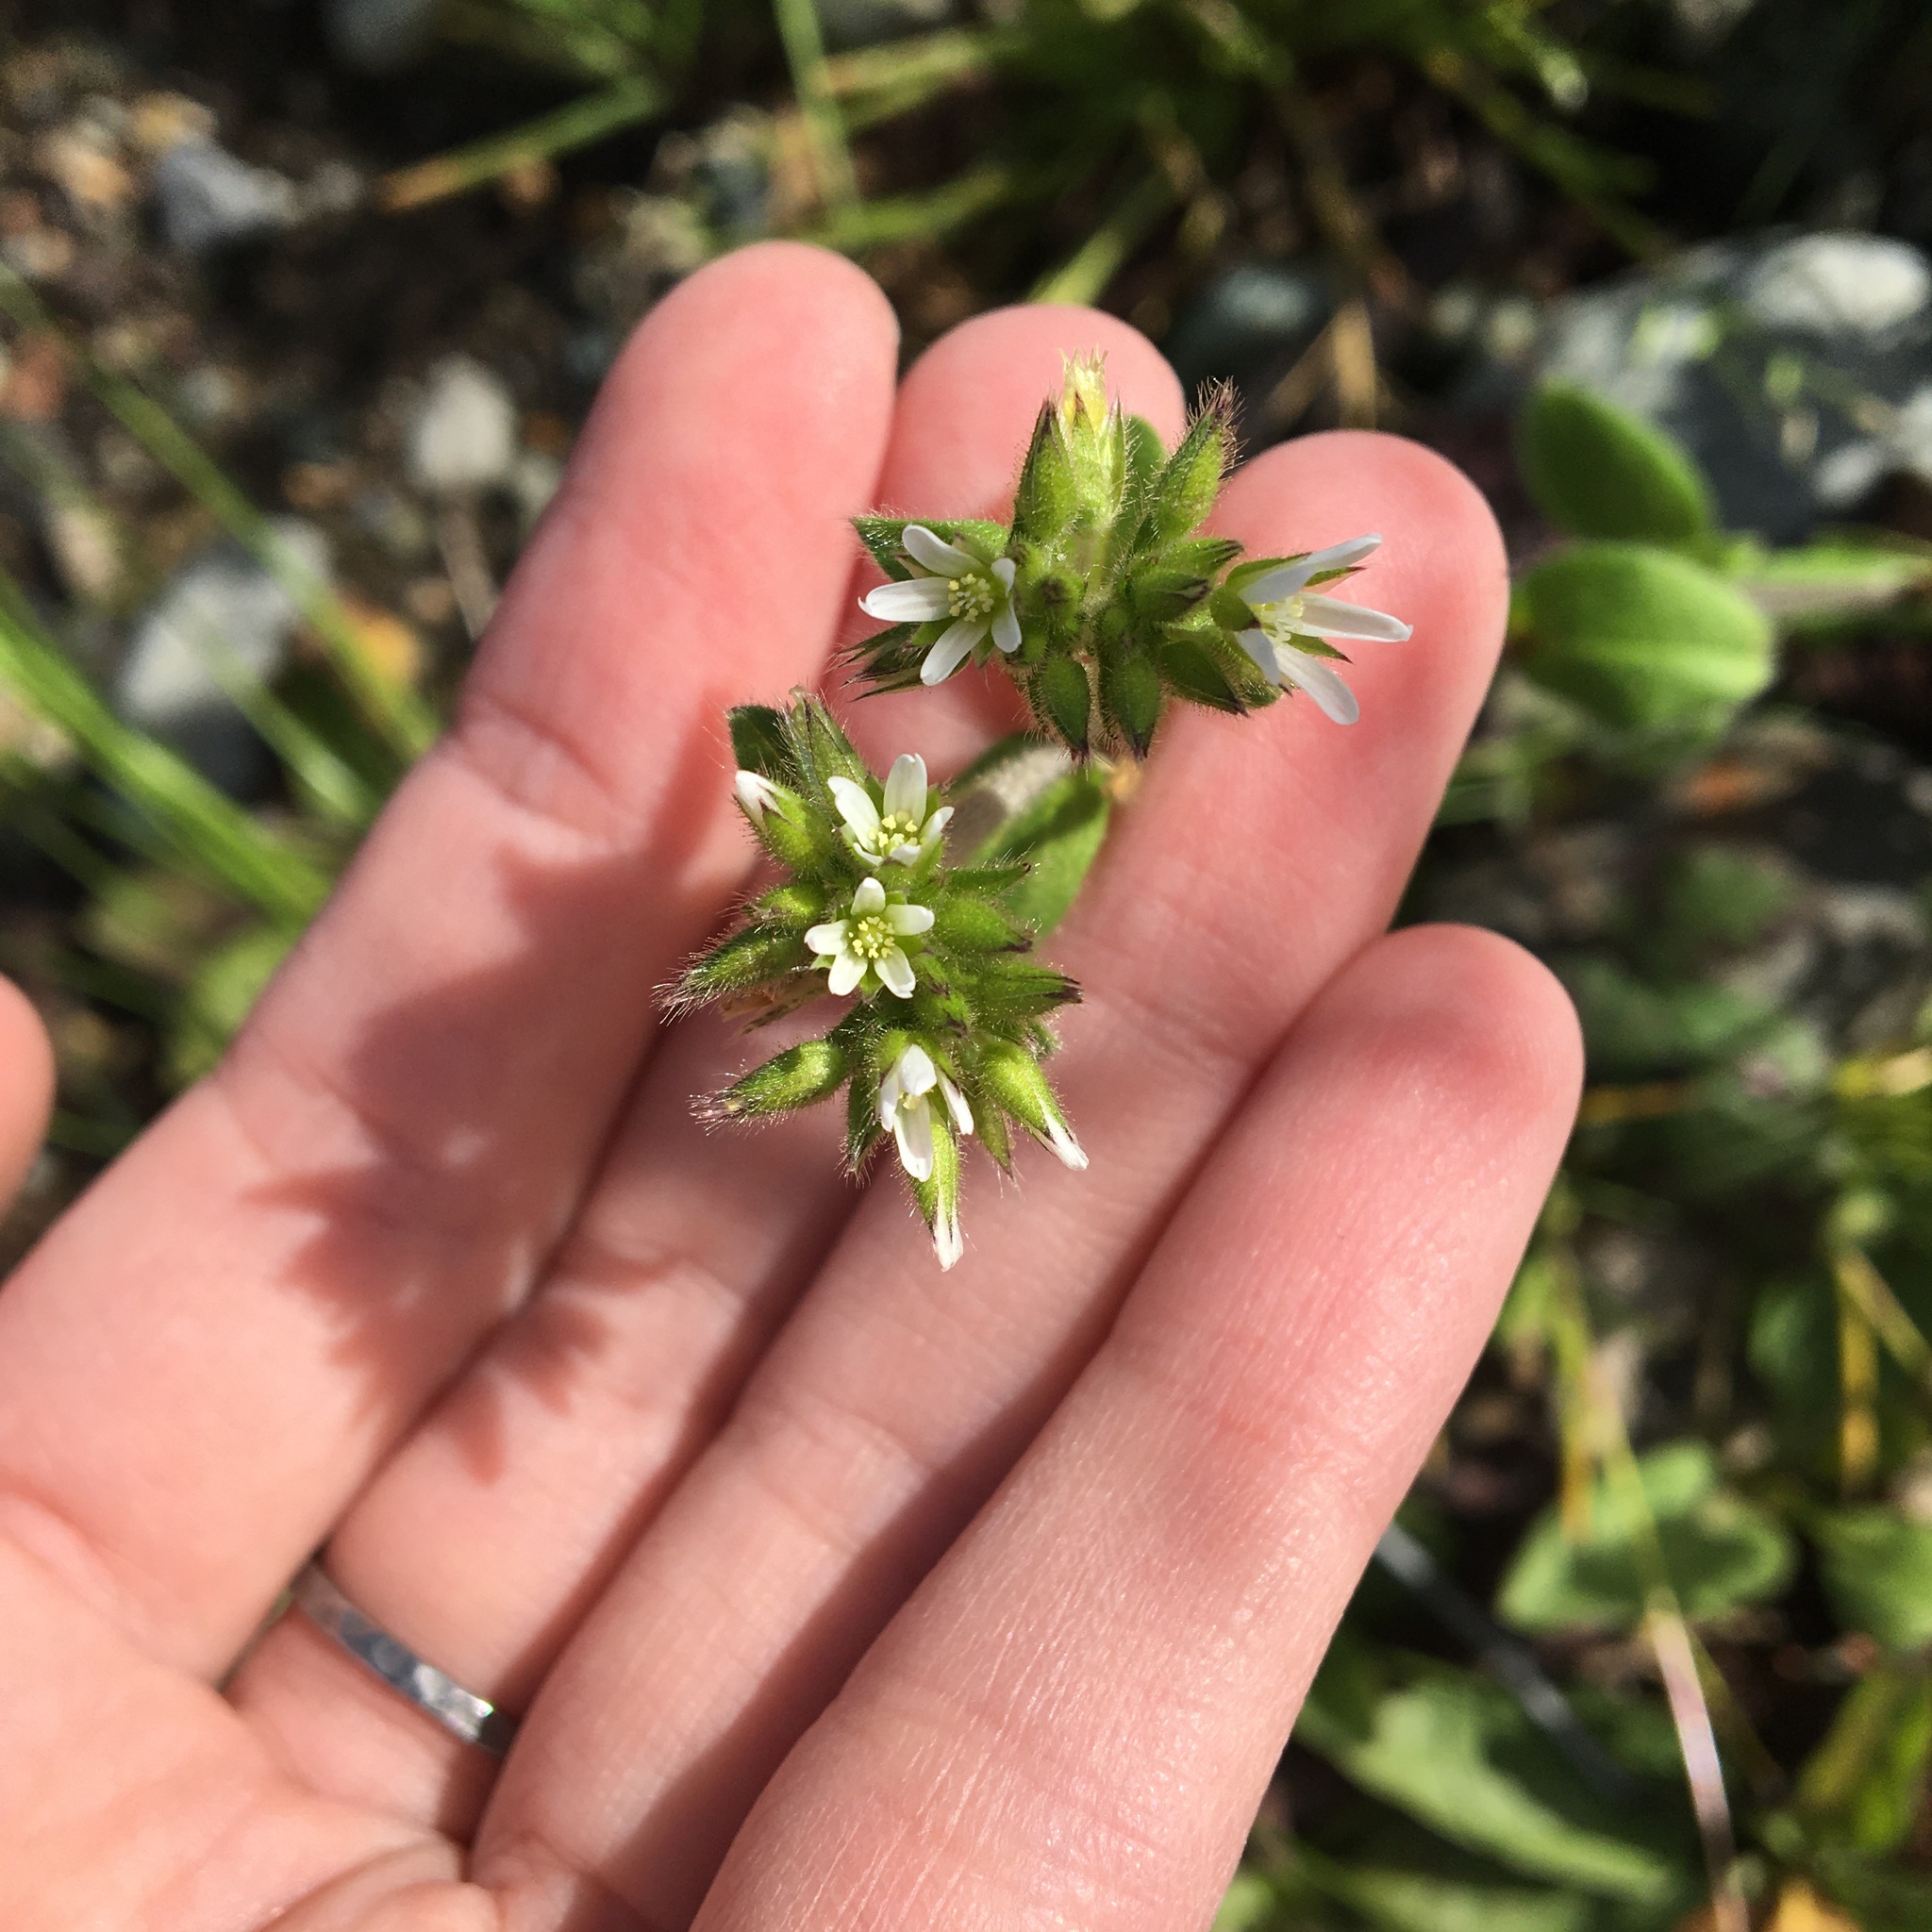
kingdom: Plantae
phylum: Tracheophyta
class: Magnoliopsida
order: Caryophyllales
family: Caryophyllaceae
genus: Cerastium
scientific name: Cerastium glomeratum
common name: Sticky chickweed
